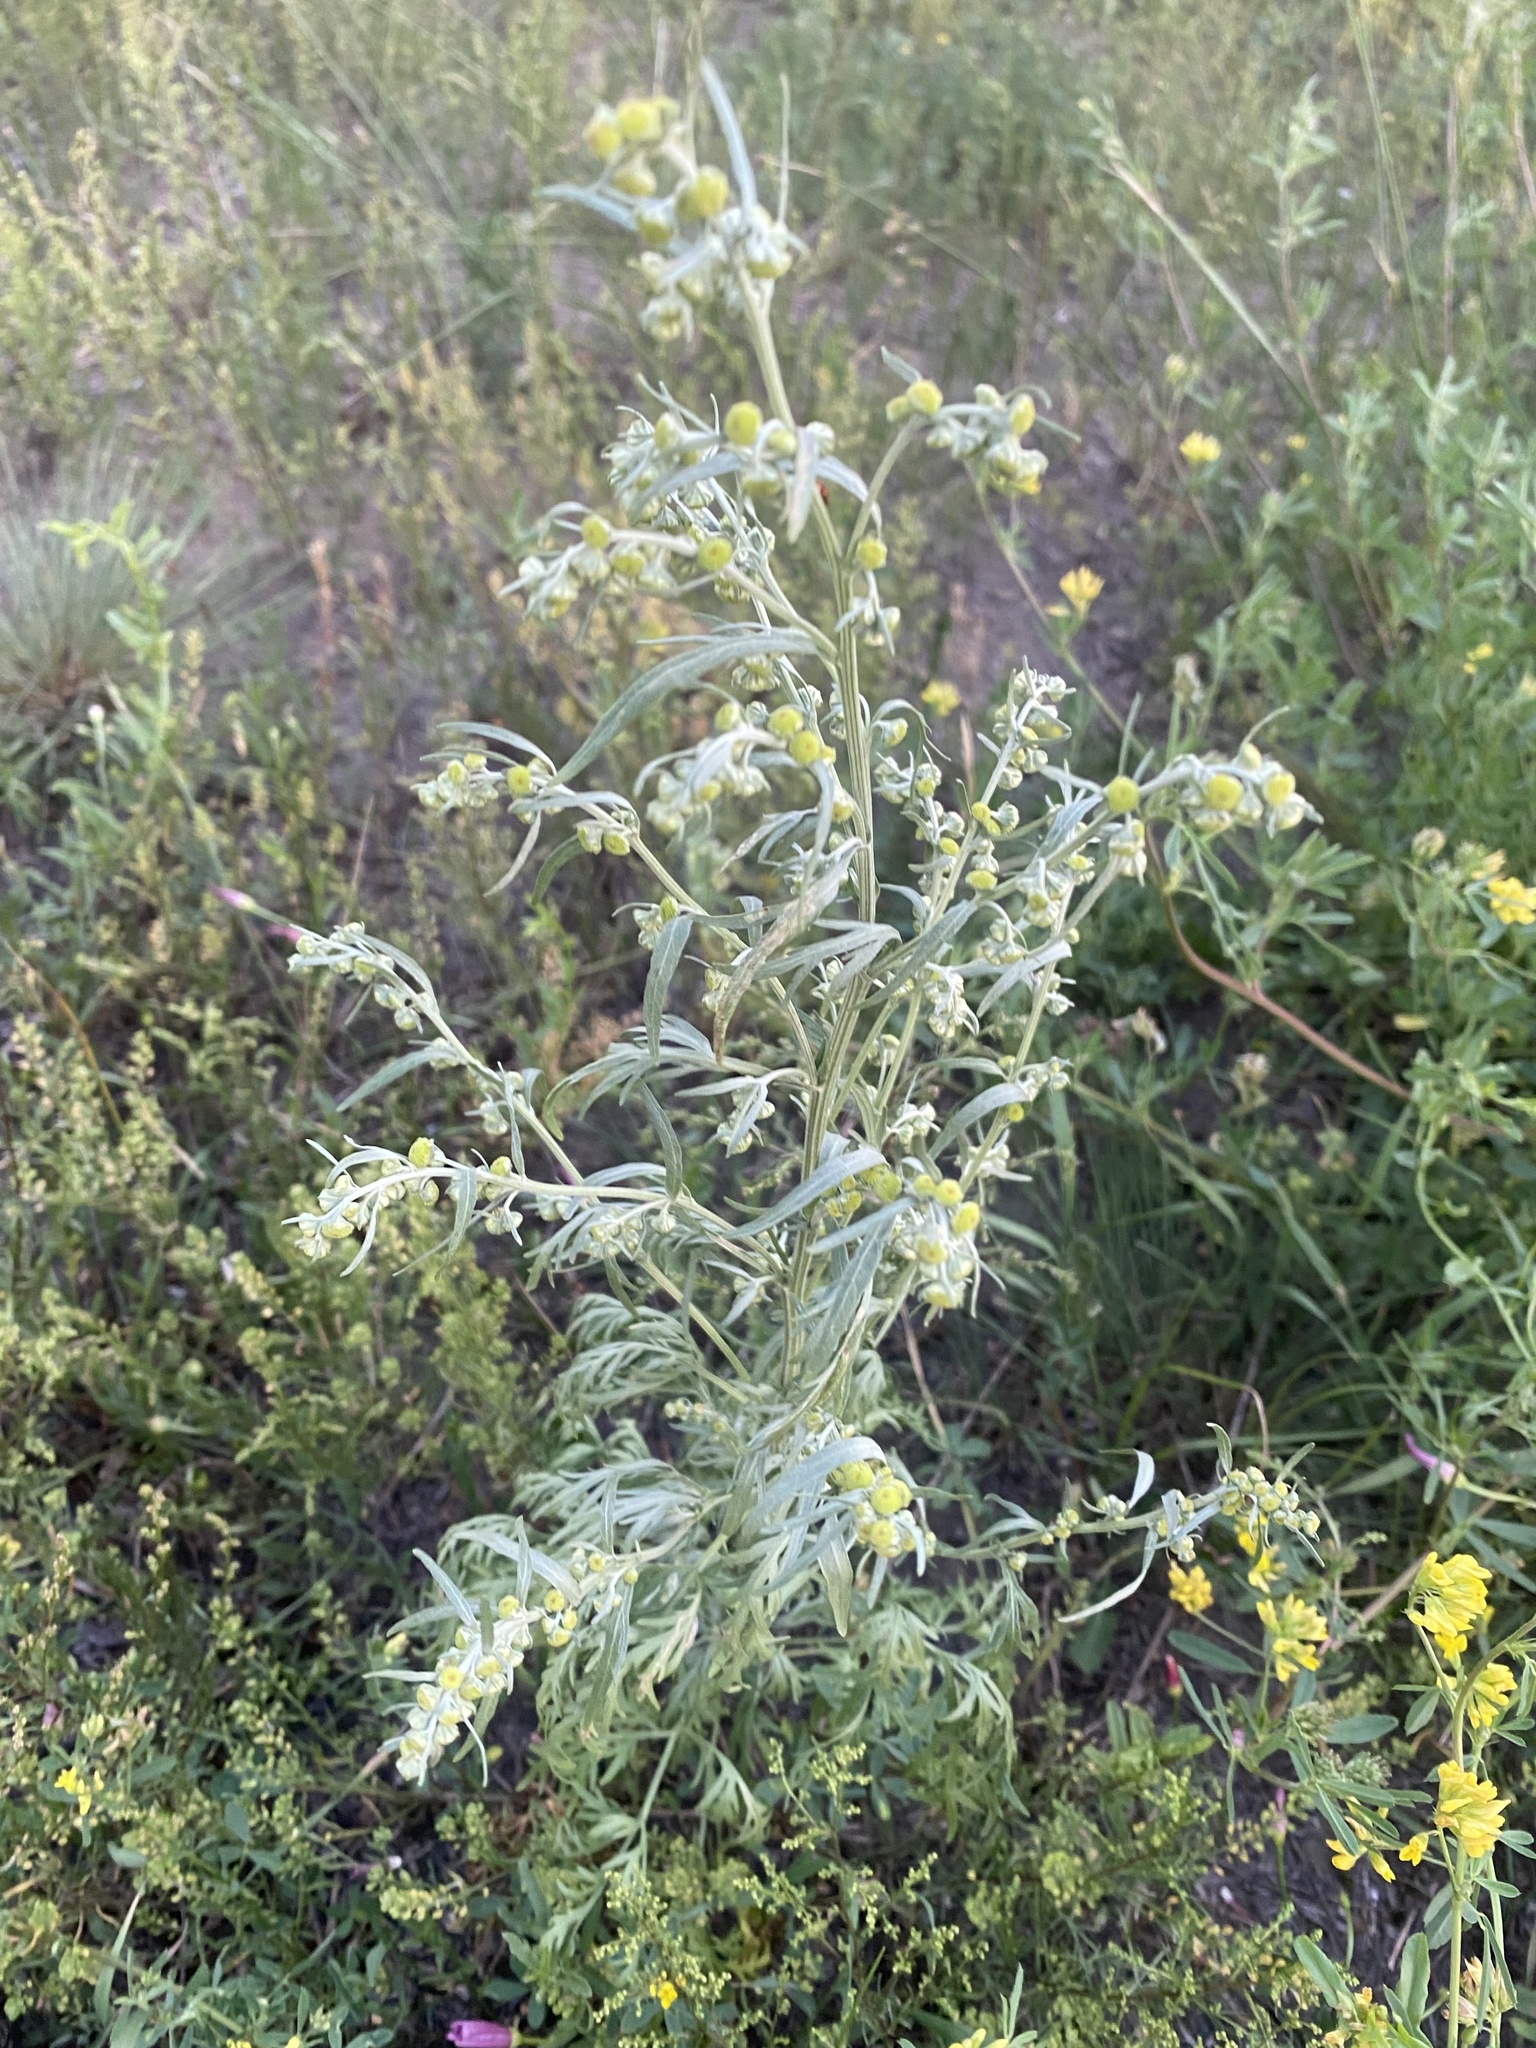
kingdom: Plantae
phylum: Tracheophyta
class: Magnoliopsida
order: Asterales
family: Asteraceae
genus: Artemisia
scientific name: Artemisia sieversiana
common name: Sieversian wormwood
